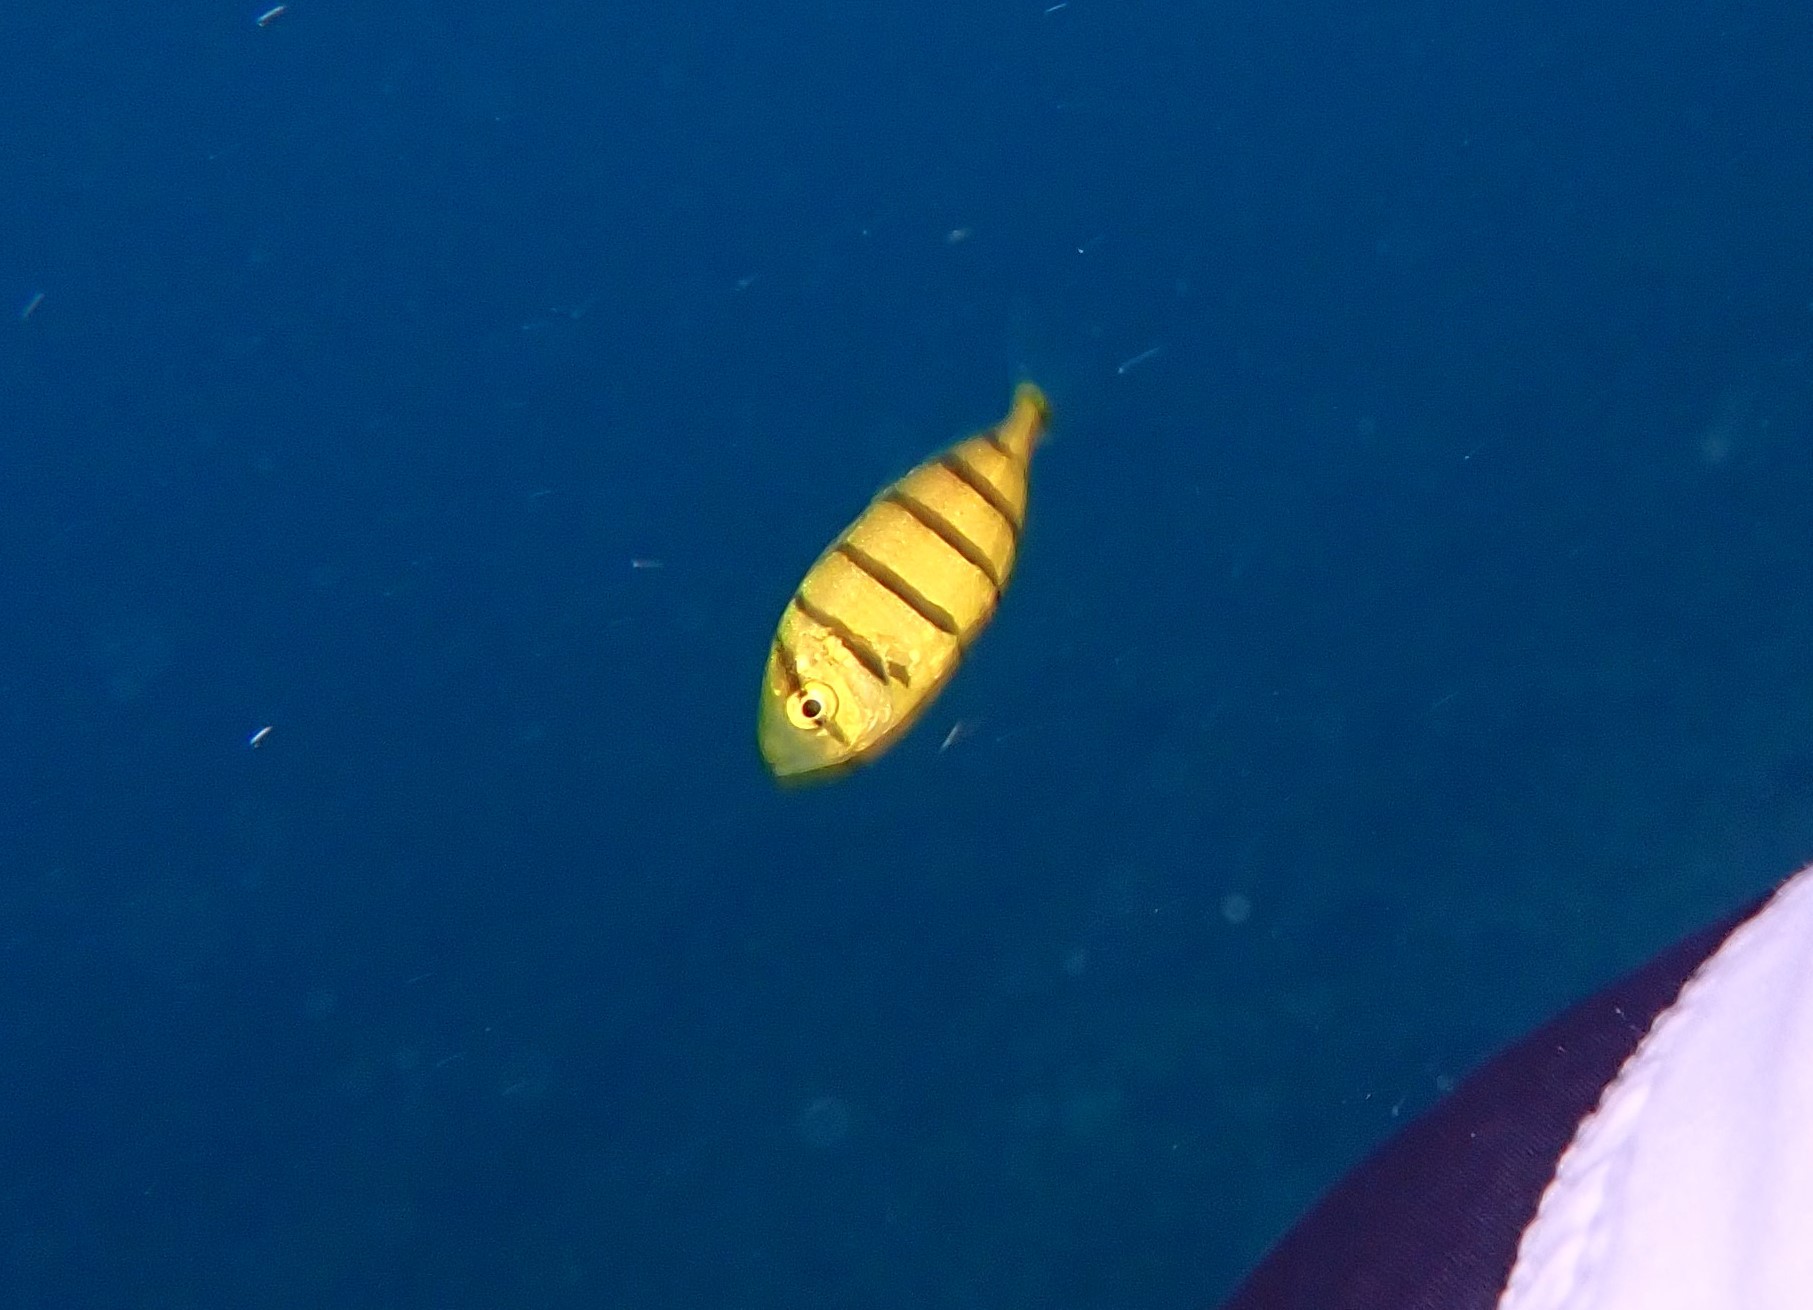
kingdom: Animalia
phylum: Chordata
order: Perciformes
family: Carangidae
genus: Gnathanodon
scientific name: Gnathanodon speciosus
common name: Golden toothless trevally
